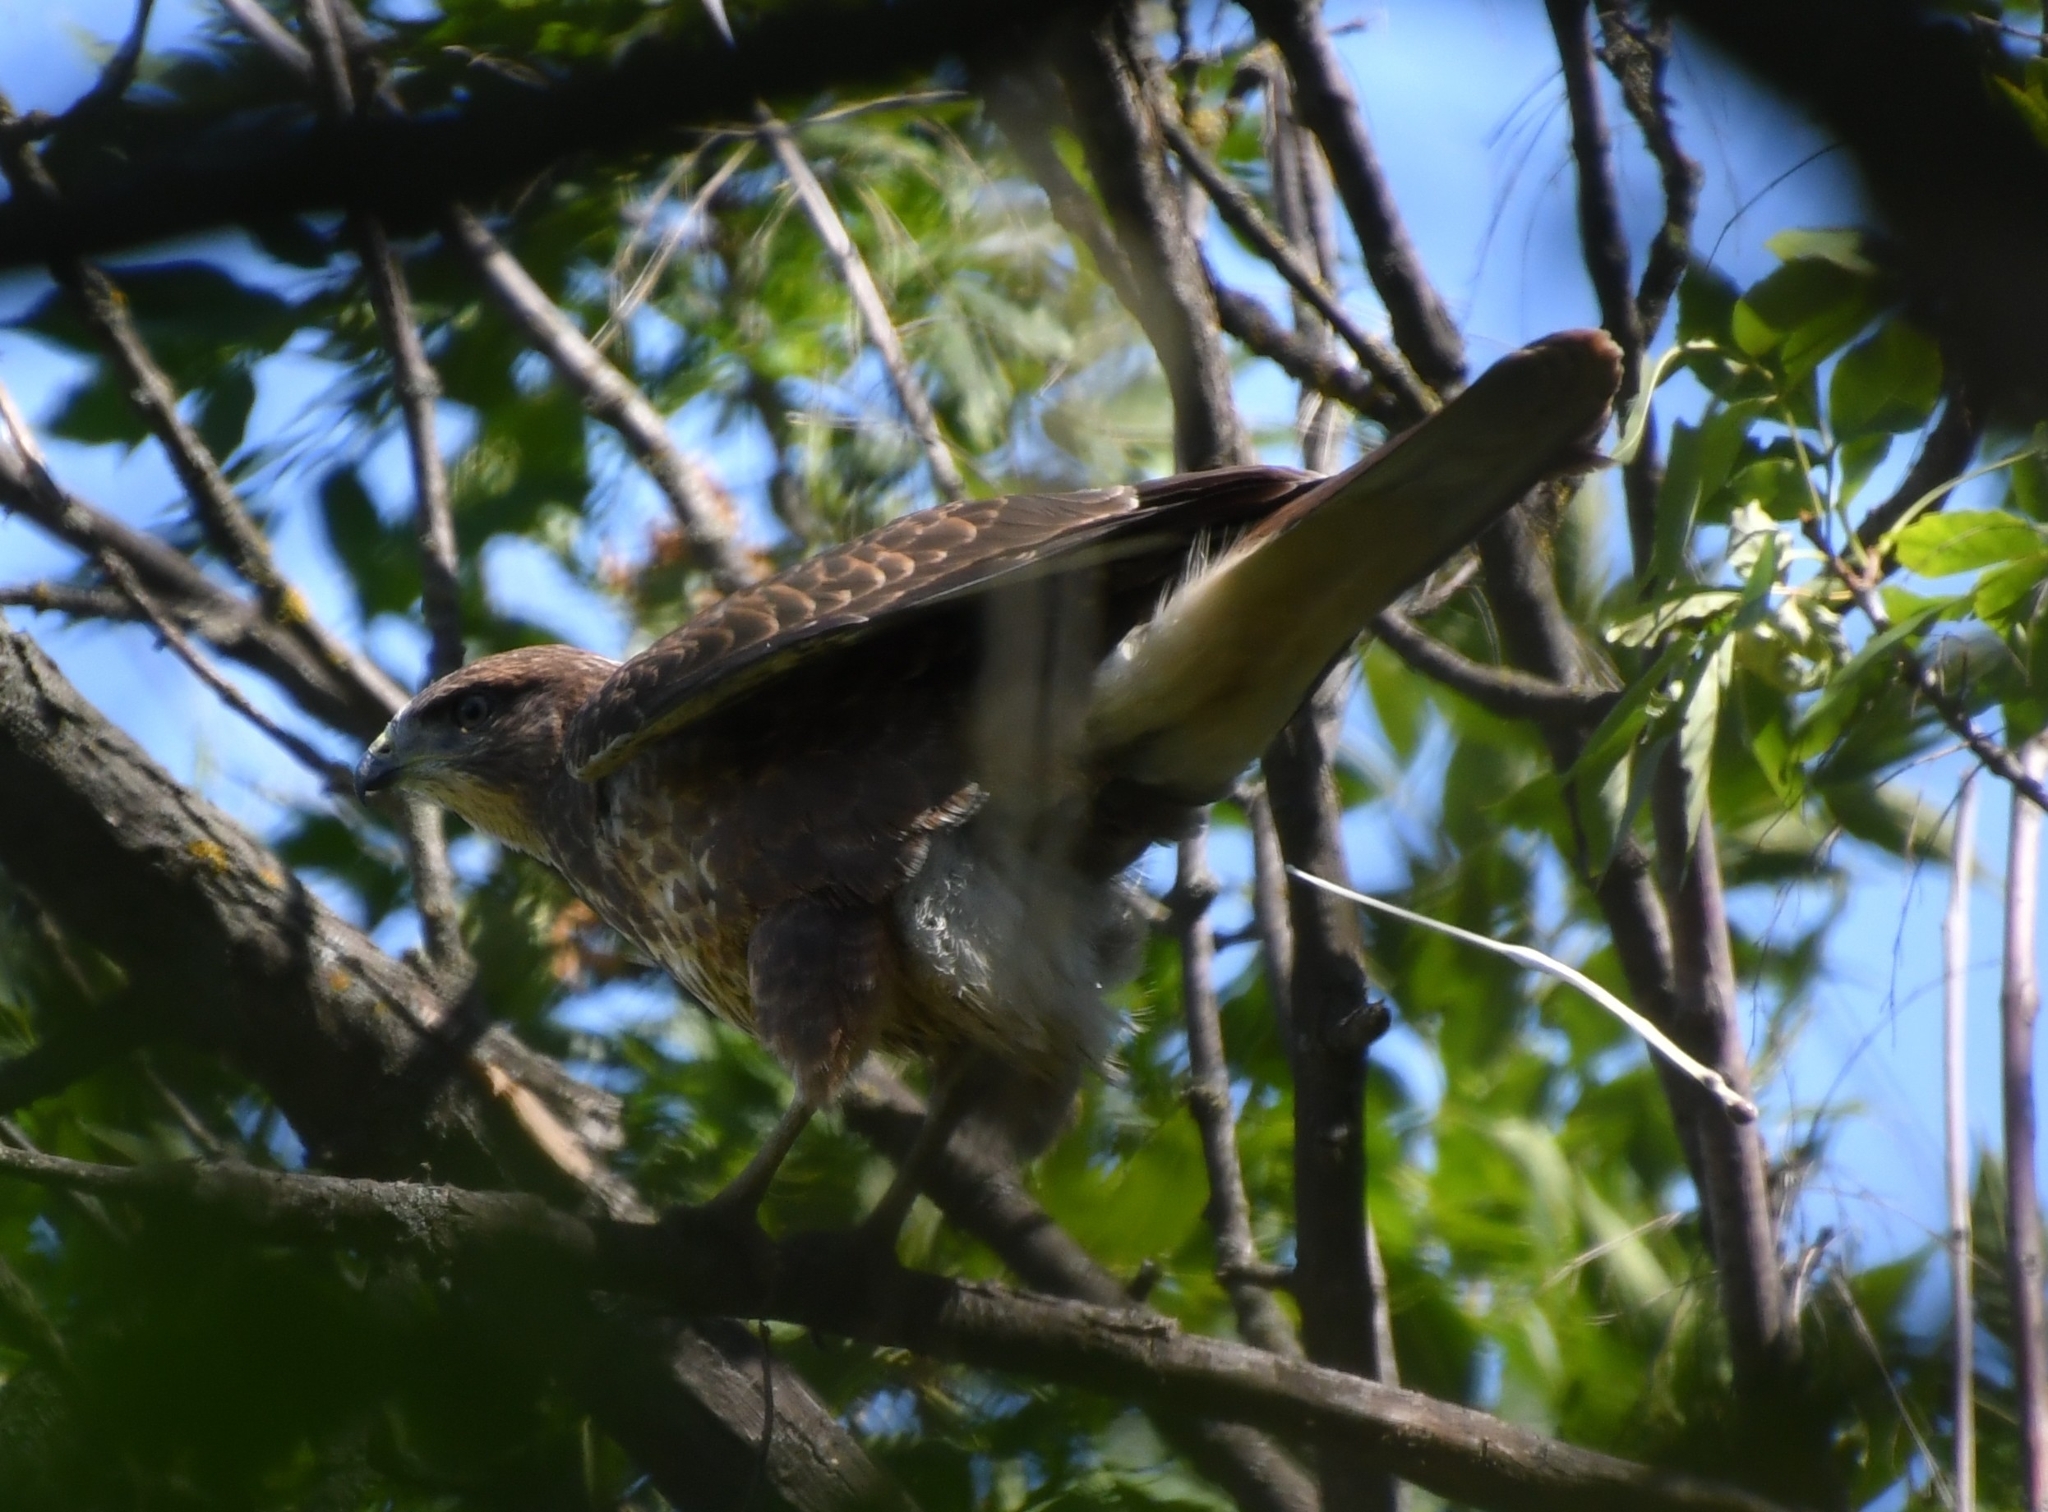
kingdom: Animalia
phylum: Chordata
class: Aves
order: Accipitriformes
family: Accipitridae
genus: Buteo
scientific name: Buteo buteo
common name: Common buzzard
